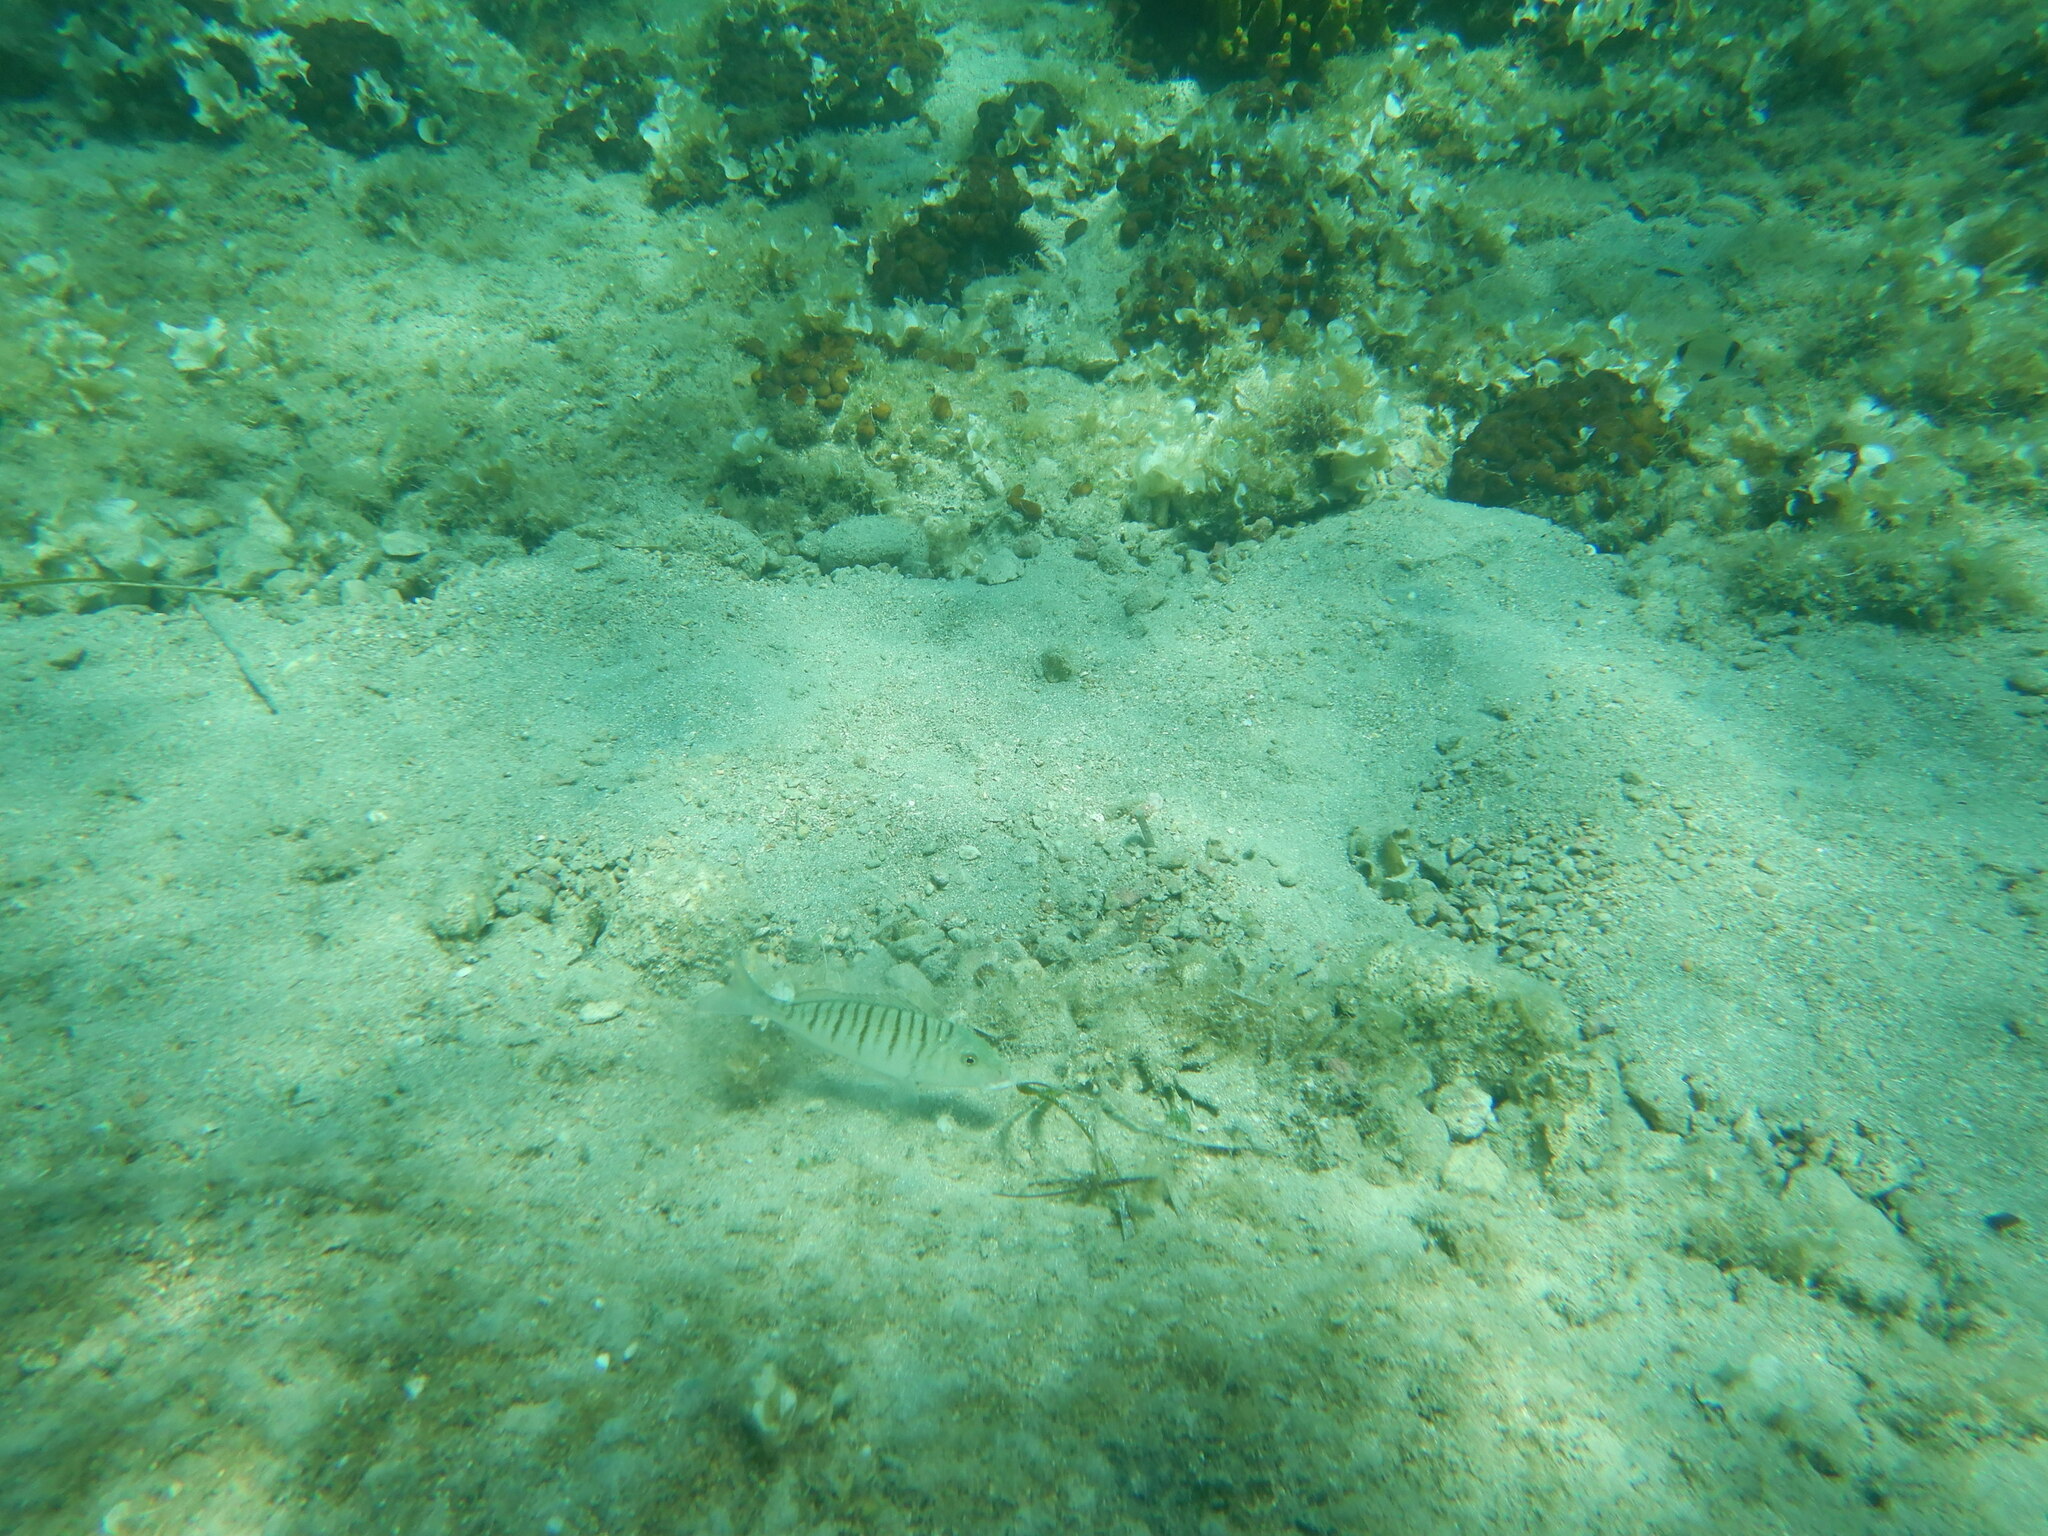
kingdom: Animalia
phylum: Chordata
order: Perciformes
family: Sparidae
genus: Lithognathus
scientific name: Lithognathus mormyrus
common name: Sand steenbras
